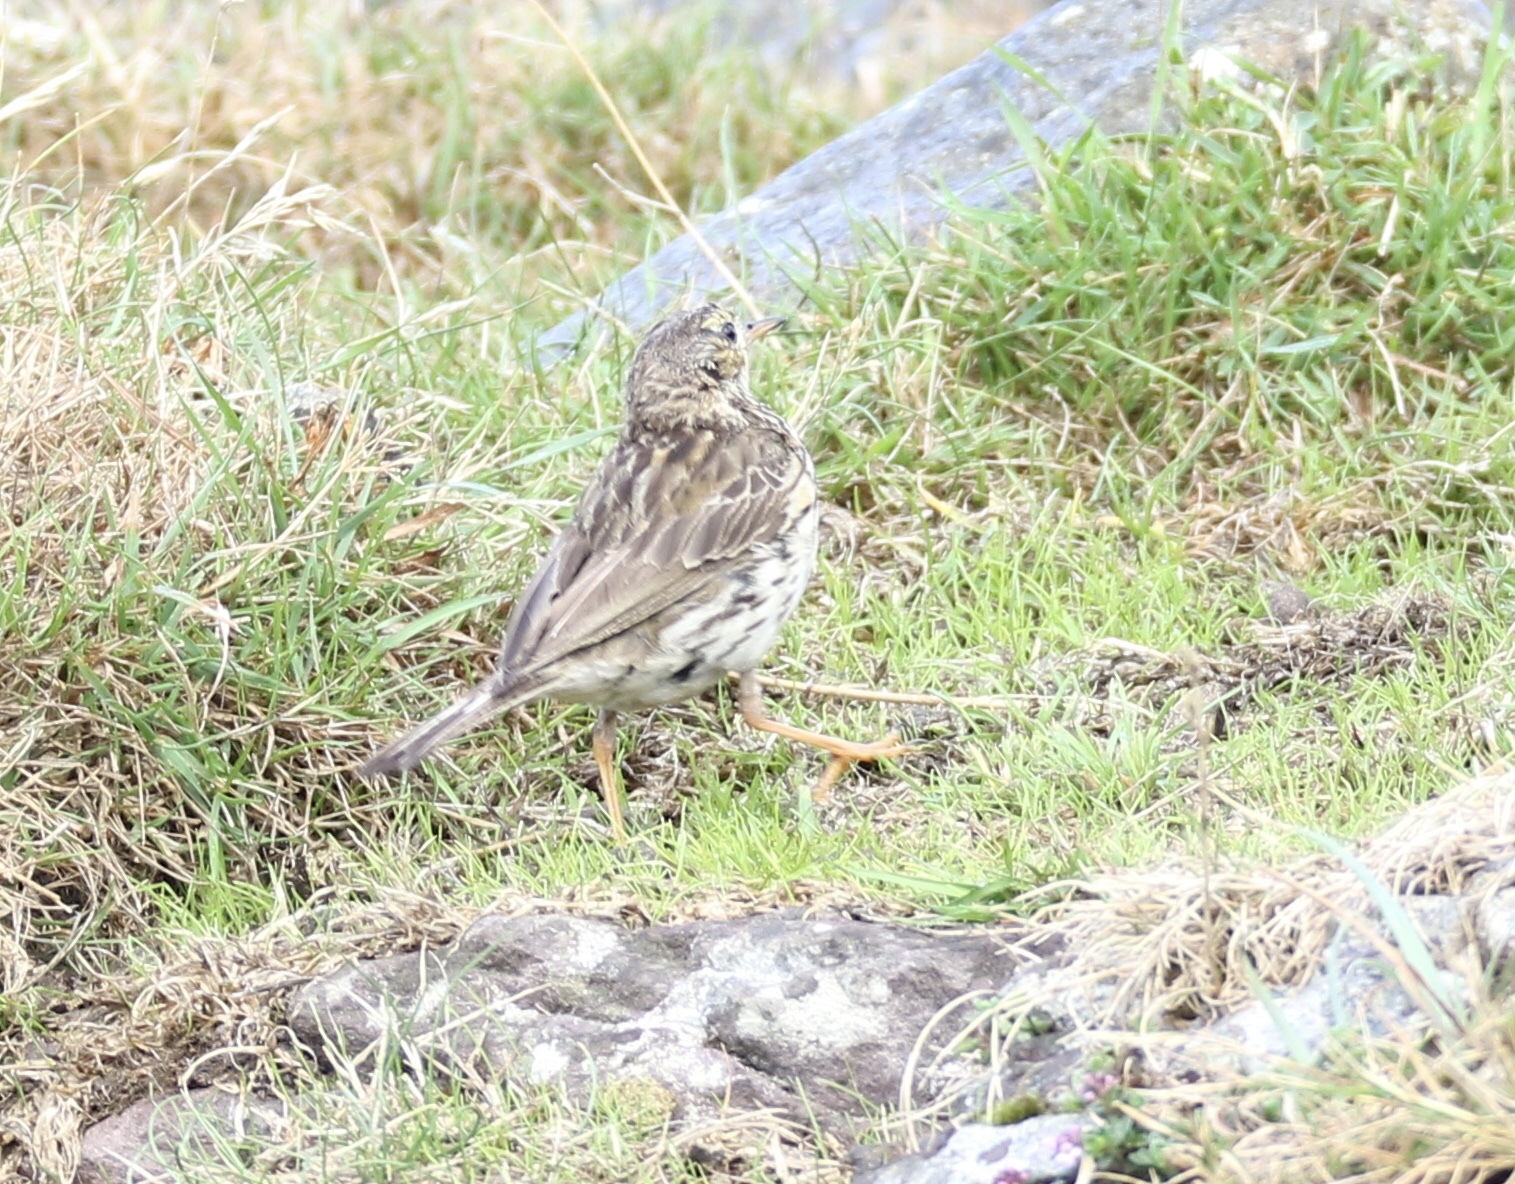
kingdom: Animalia
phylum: Chordata
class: Aves
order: Passeriformes
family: Motacillidae
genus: Anthus
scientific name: Anthus pratensis
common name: Meadow pipit
